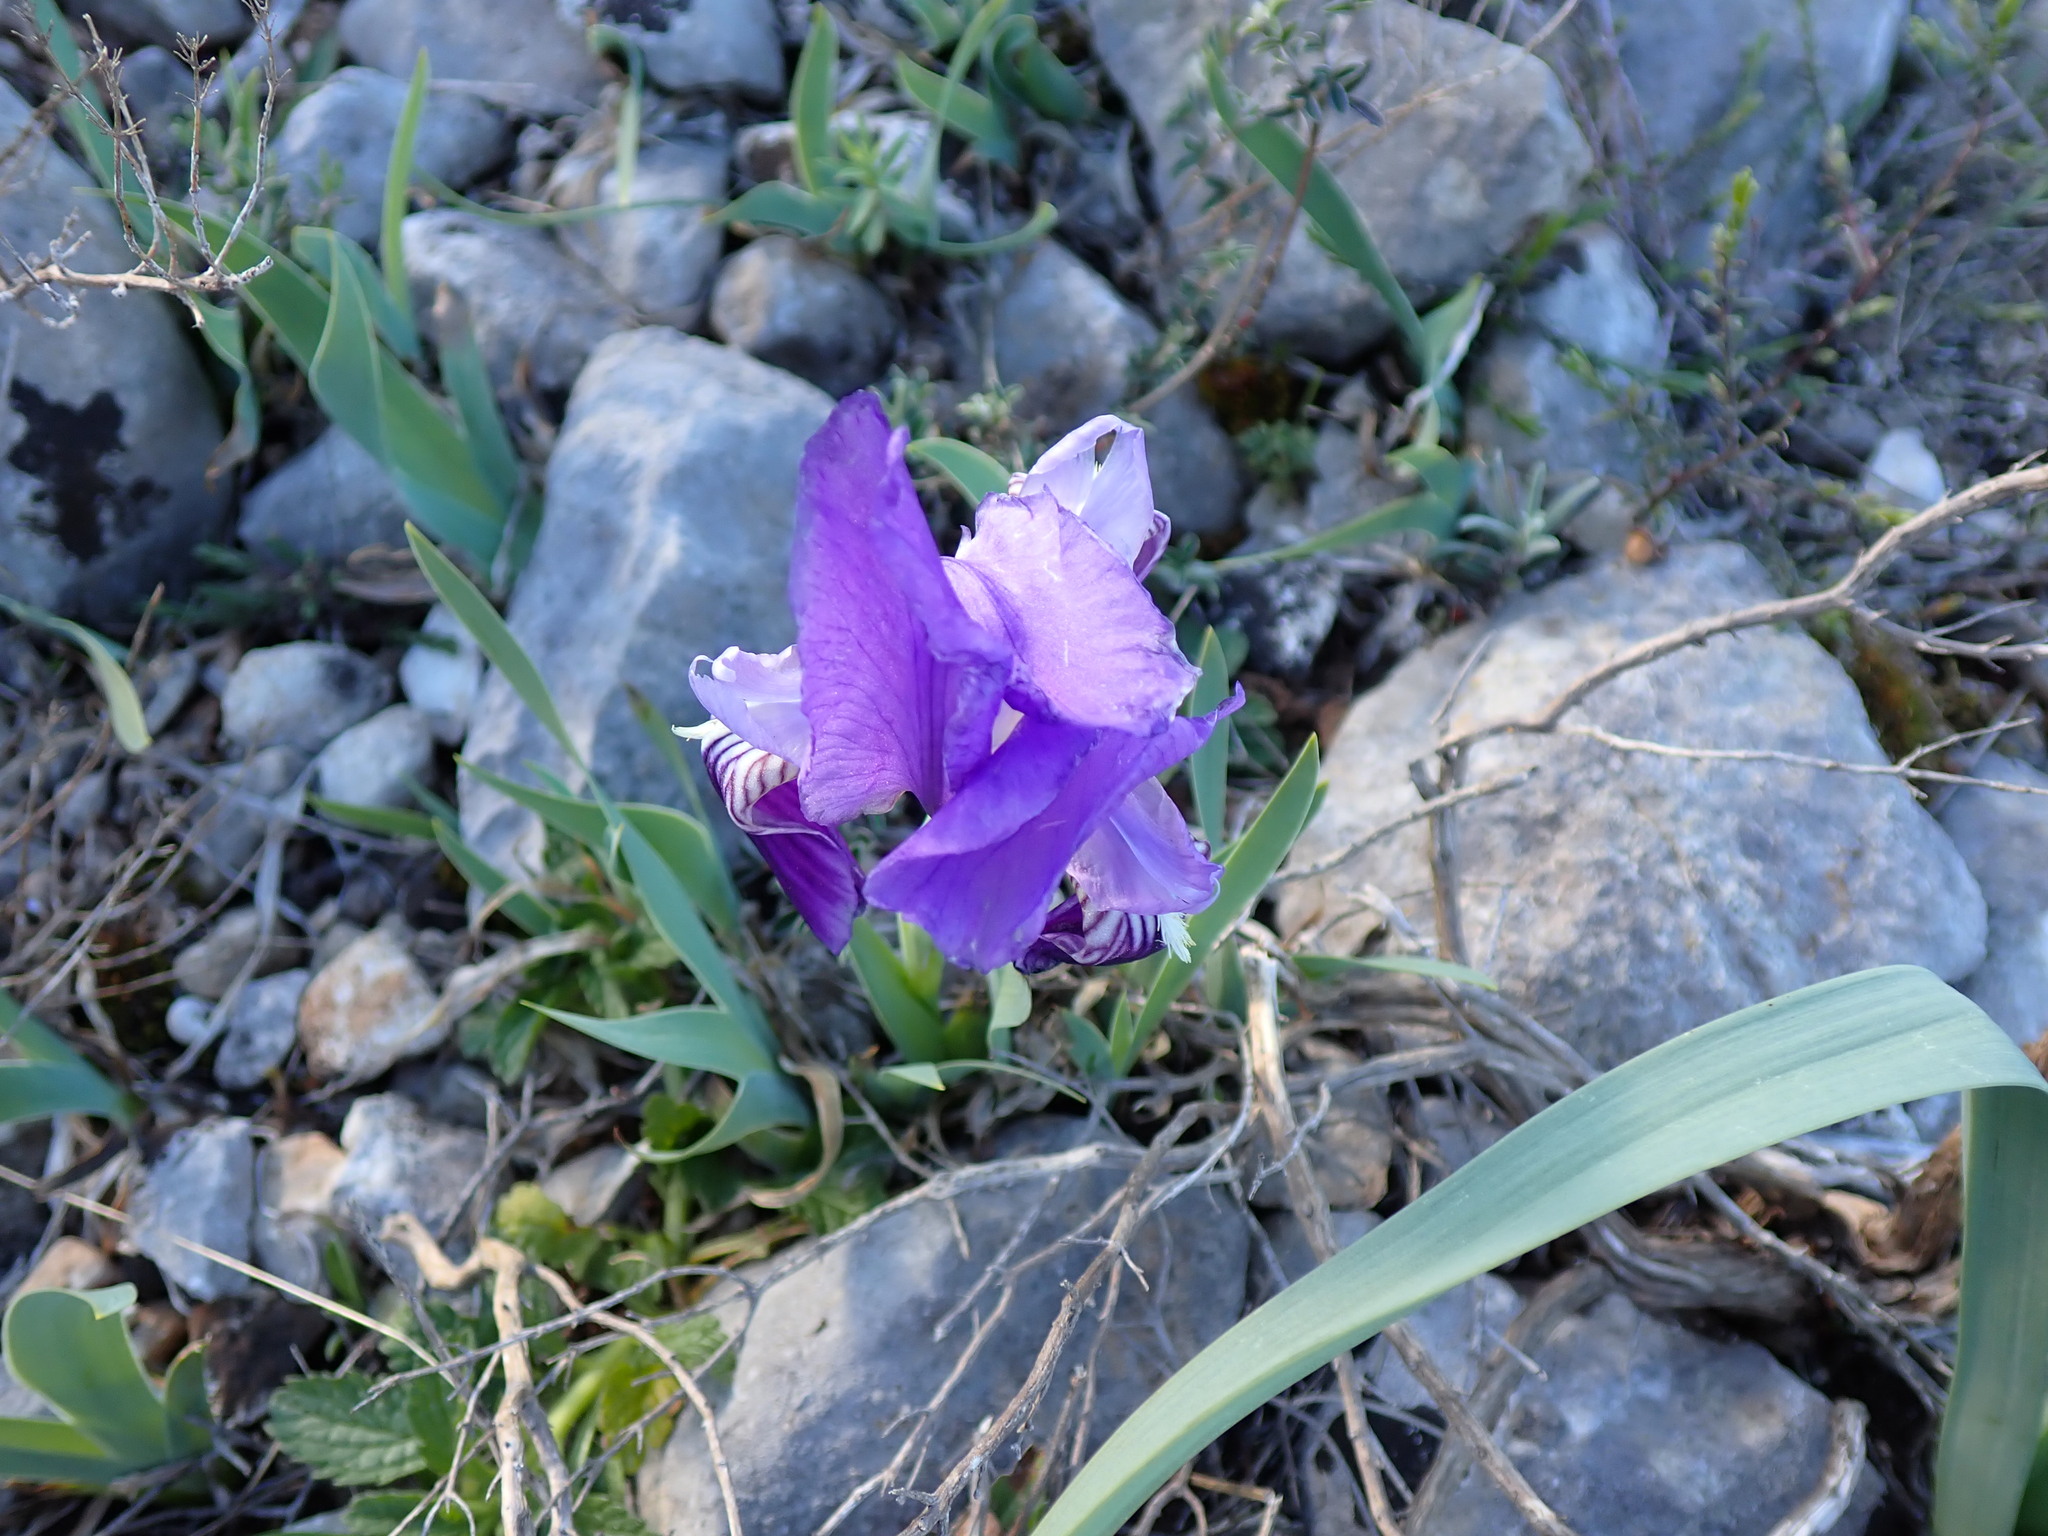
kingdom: Plantae
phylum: Tracheophyta
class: Liliopsida
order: Asparagales
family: Iridaceae
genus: Iris
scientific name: Iris lutescens
